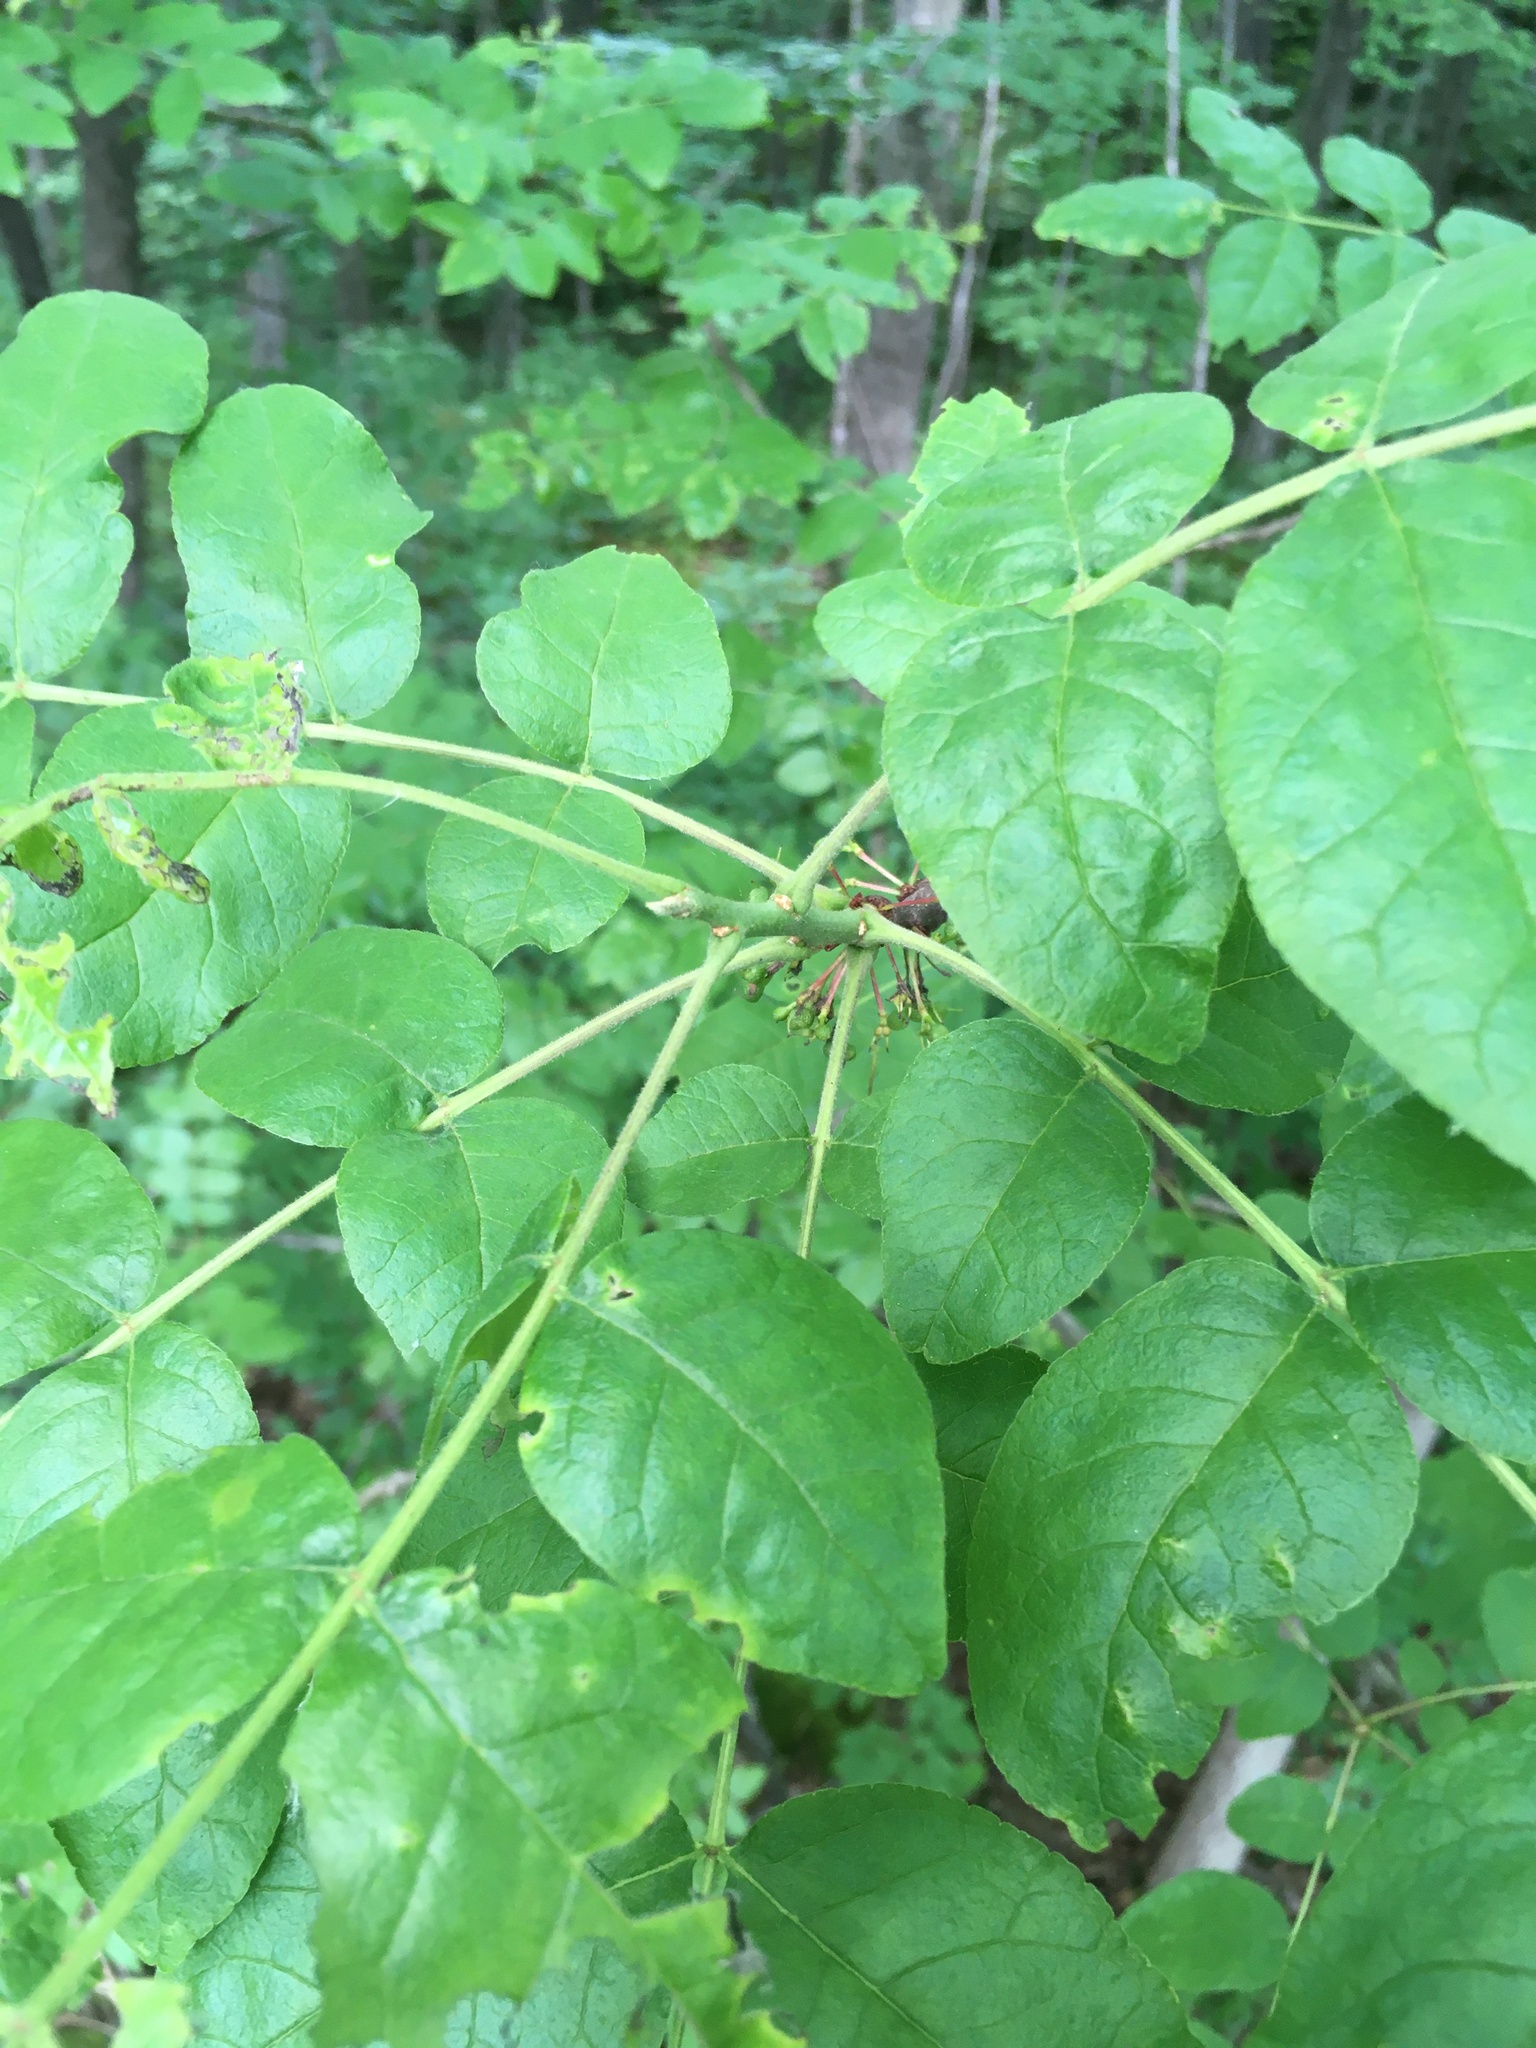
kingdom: Plantae
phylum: Tracheophyta
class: Magnoliopsida
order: Sapindales
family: Rutaceae
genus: Zanthoxylum
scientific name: Zanthoxylum americanum
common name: Northern prickly-ash
